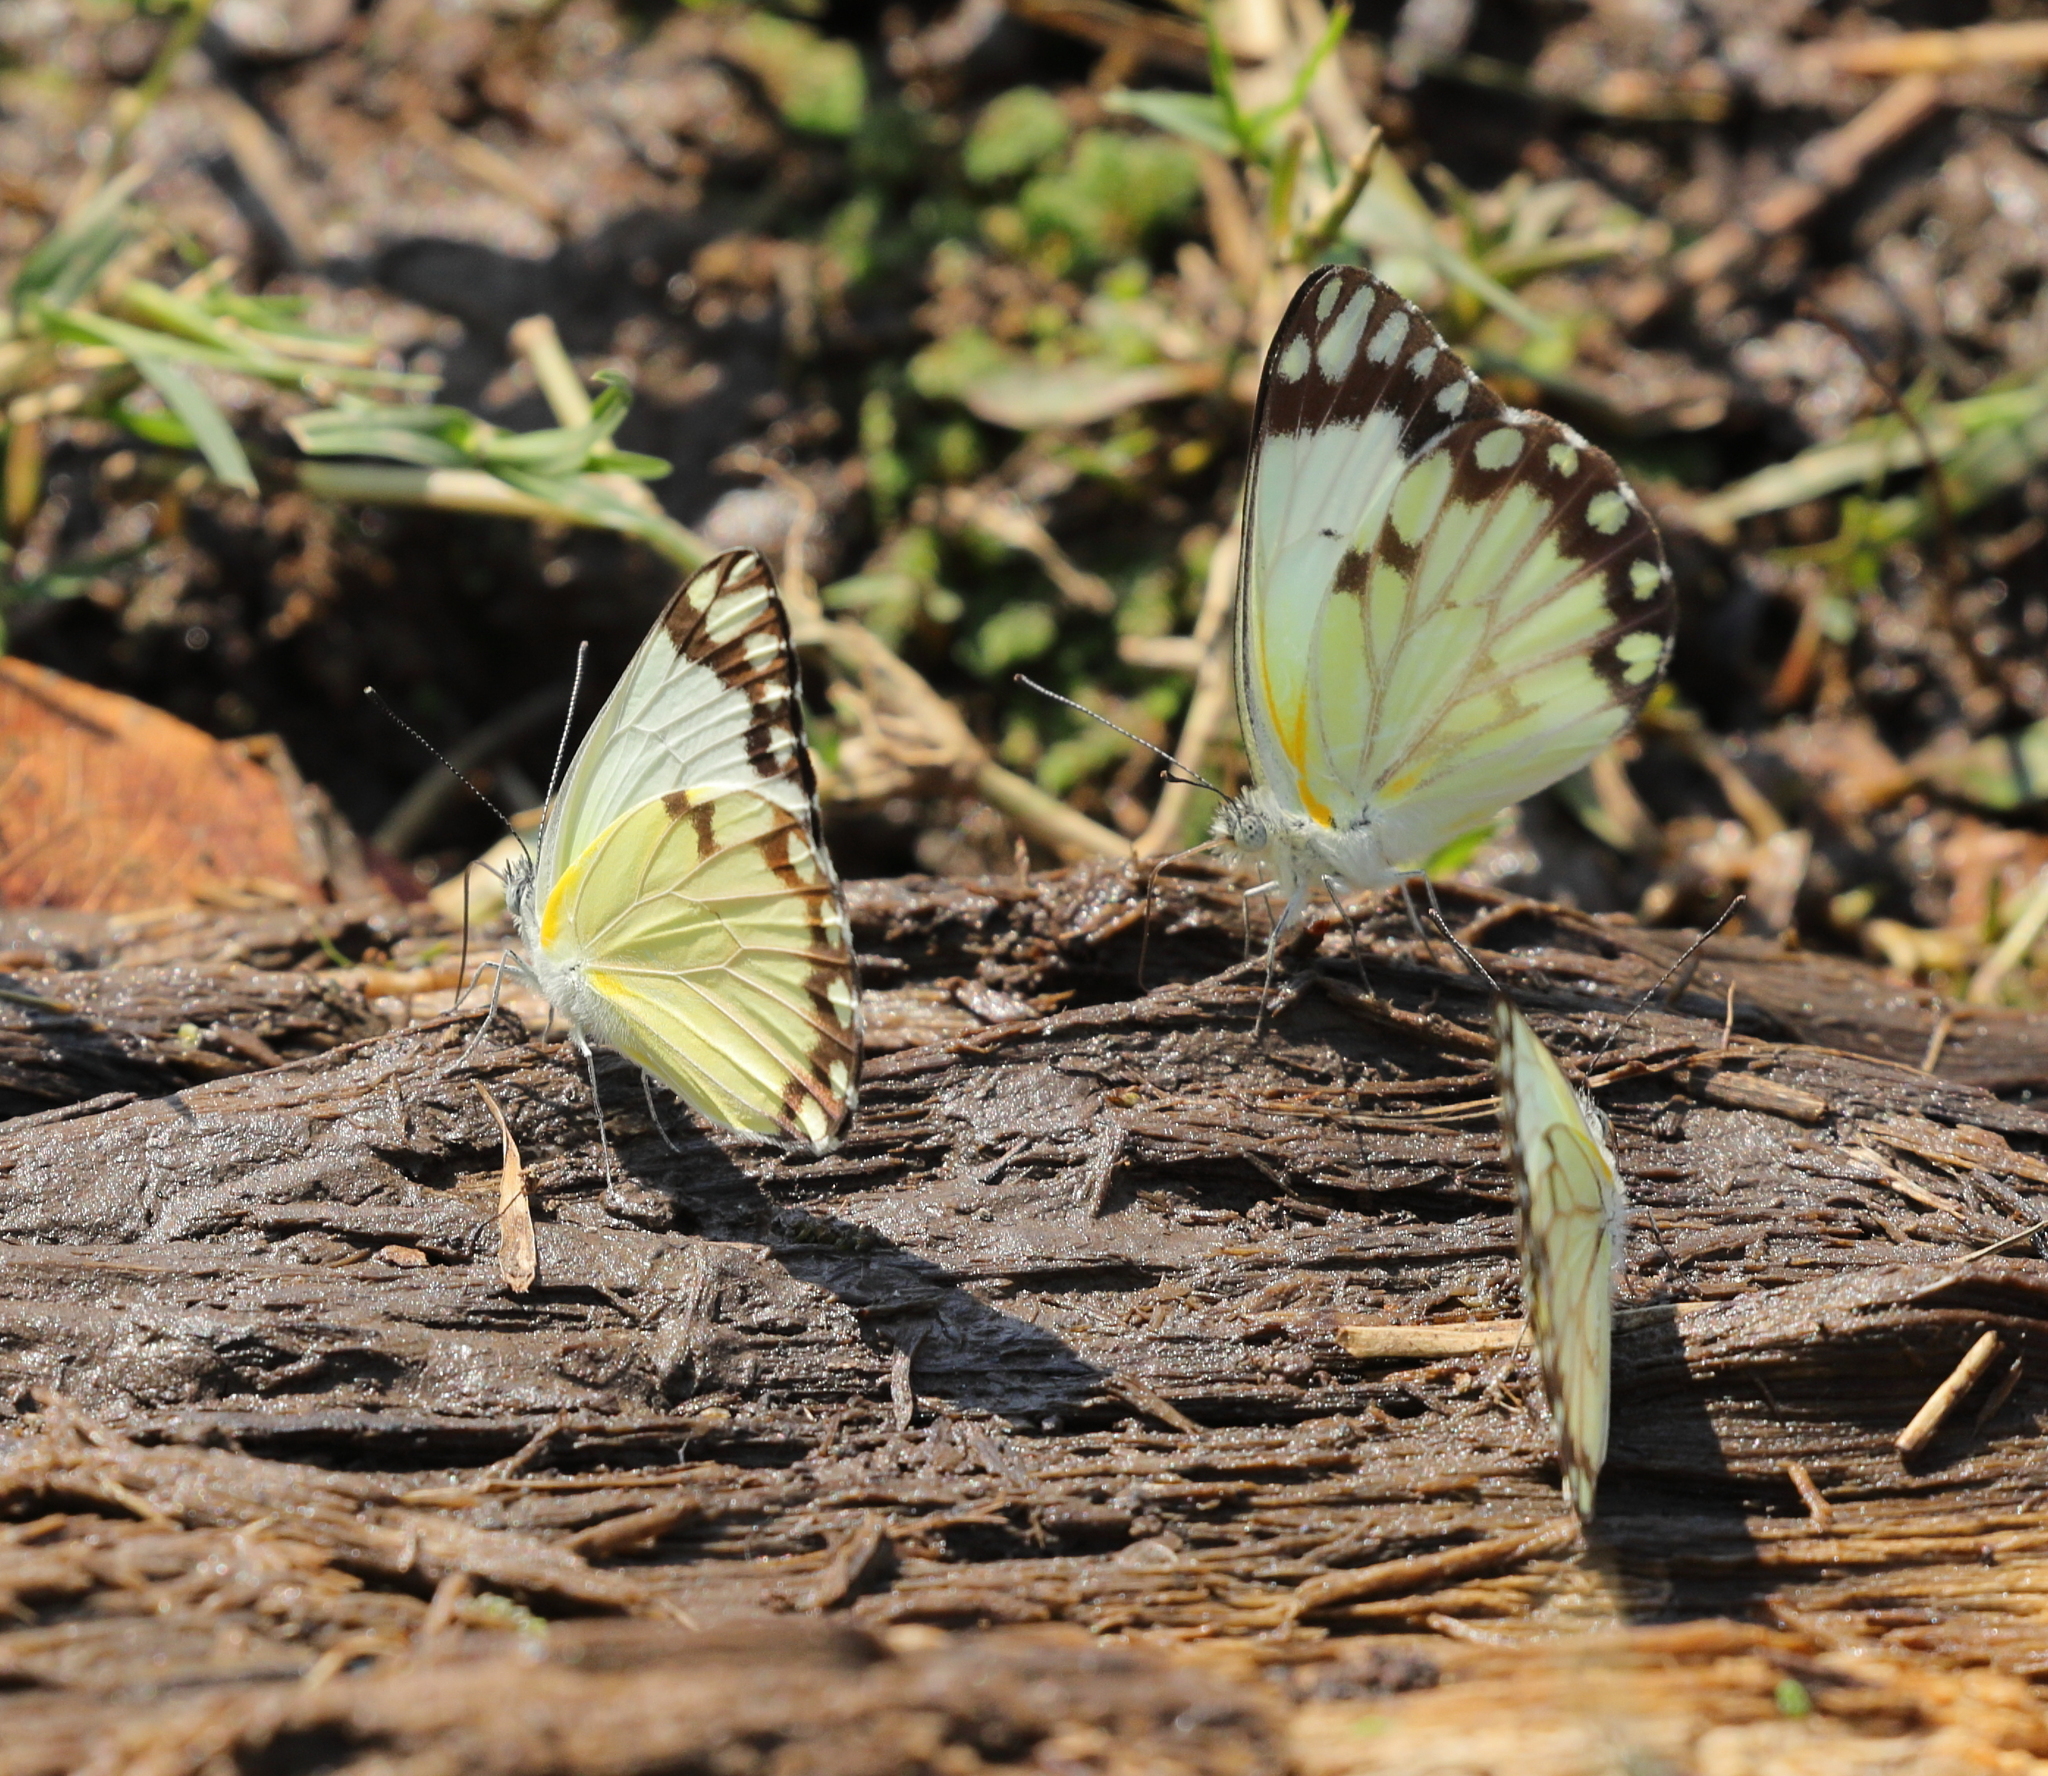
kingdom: Animalia
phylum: Arthropoda
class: Insecta
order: Lepidoptera
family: Pieridae
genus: Belenois
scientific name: Belenois aurota
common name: Brown-veined white
